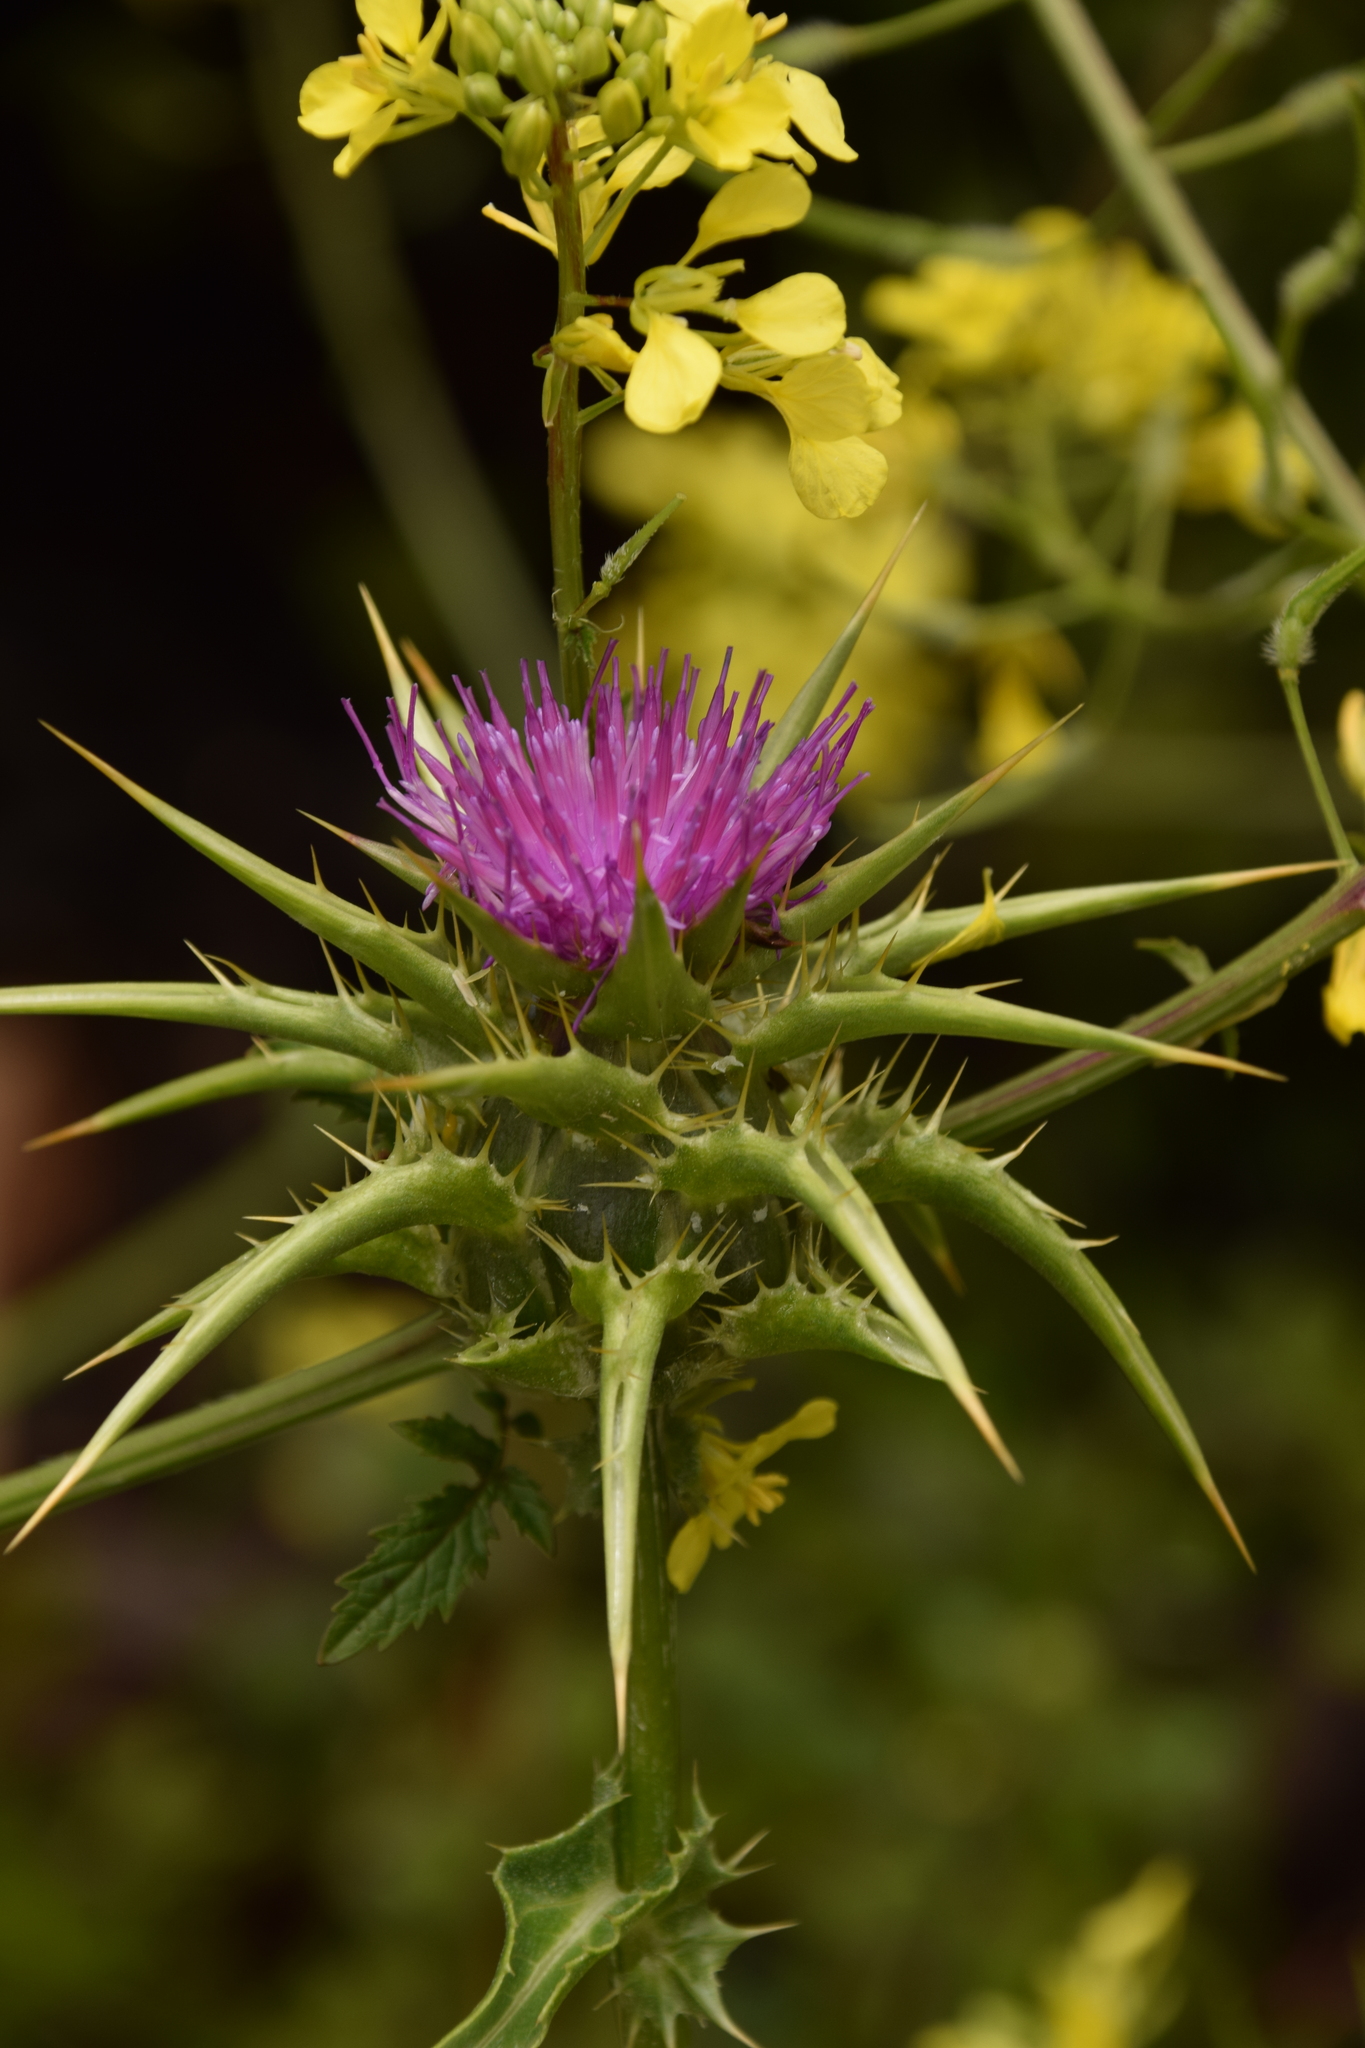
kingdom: Plantae
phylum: Tracheophyta
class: Magnoliopsida
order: Asterales
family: Asteraceae
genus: Silybum
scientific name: Silybum marianum
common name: Milk thistle
